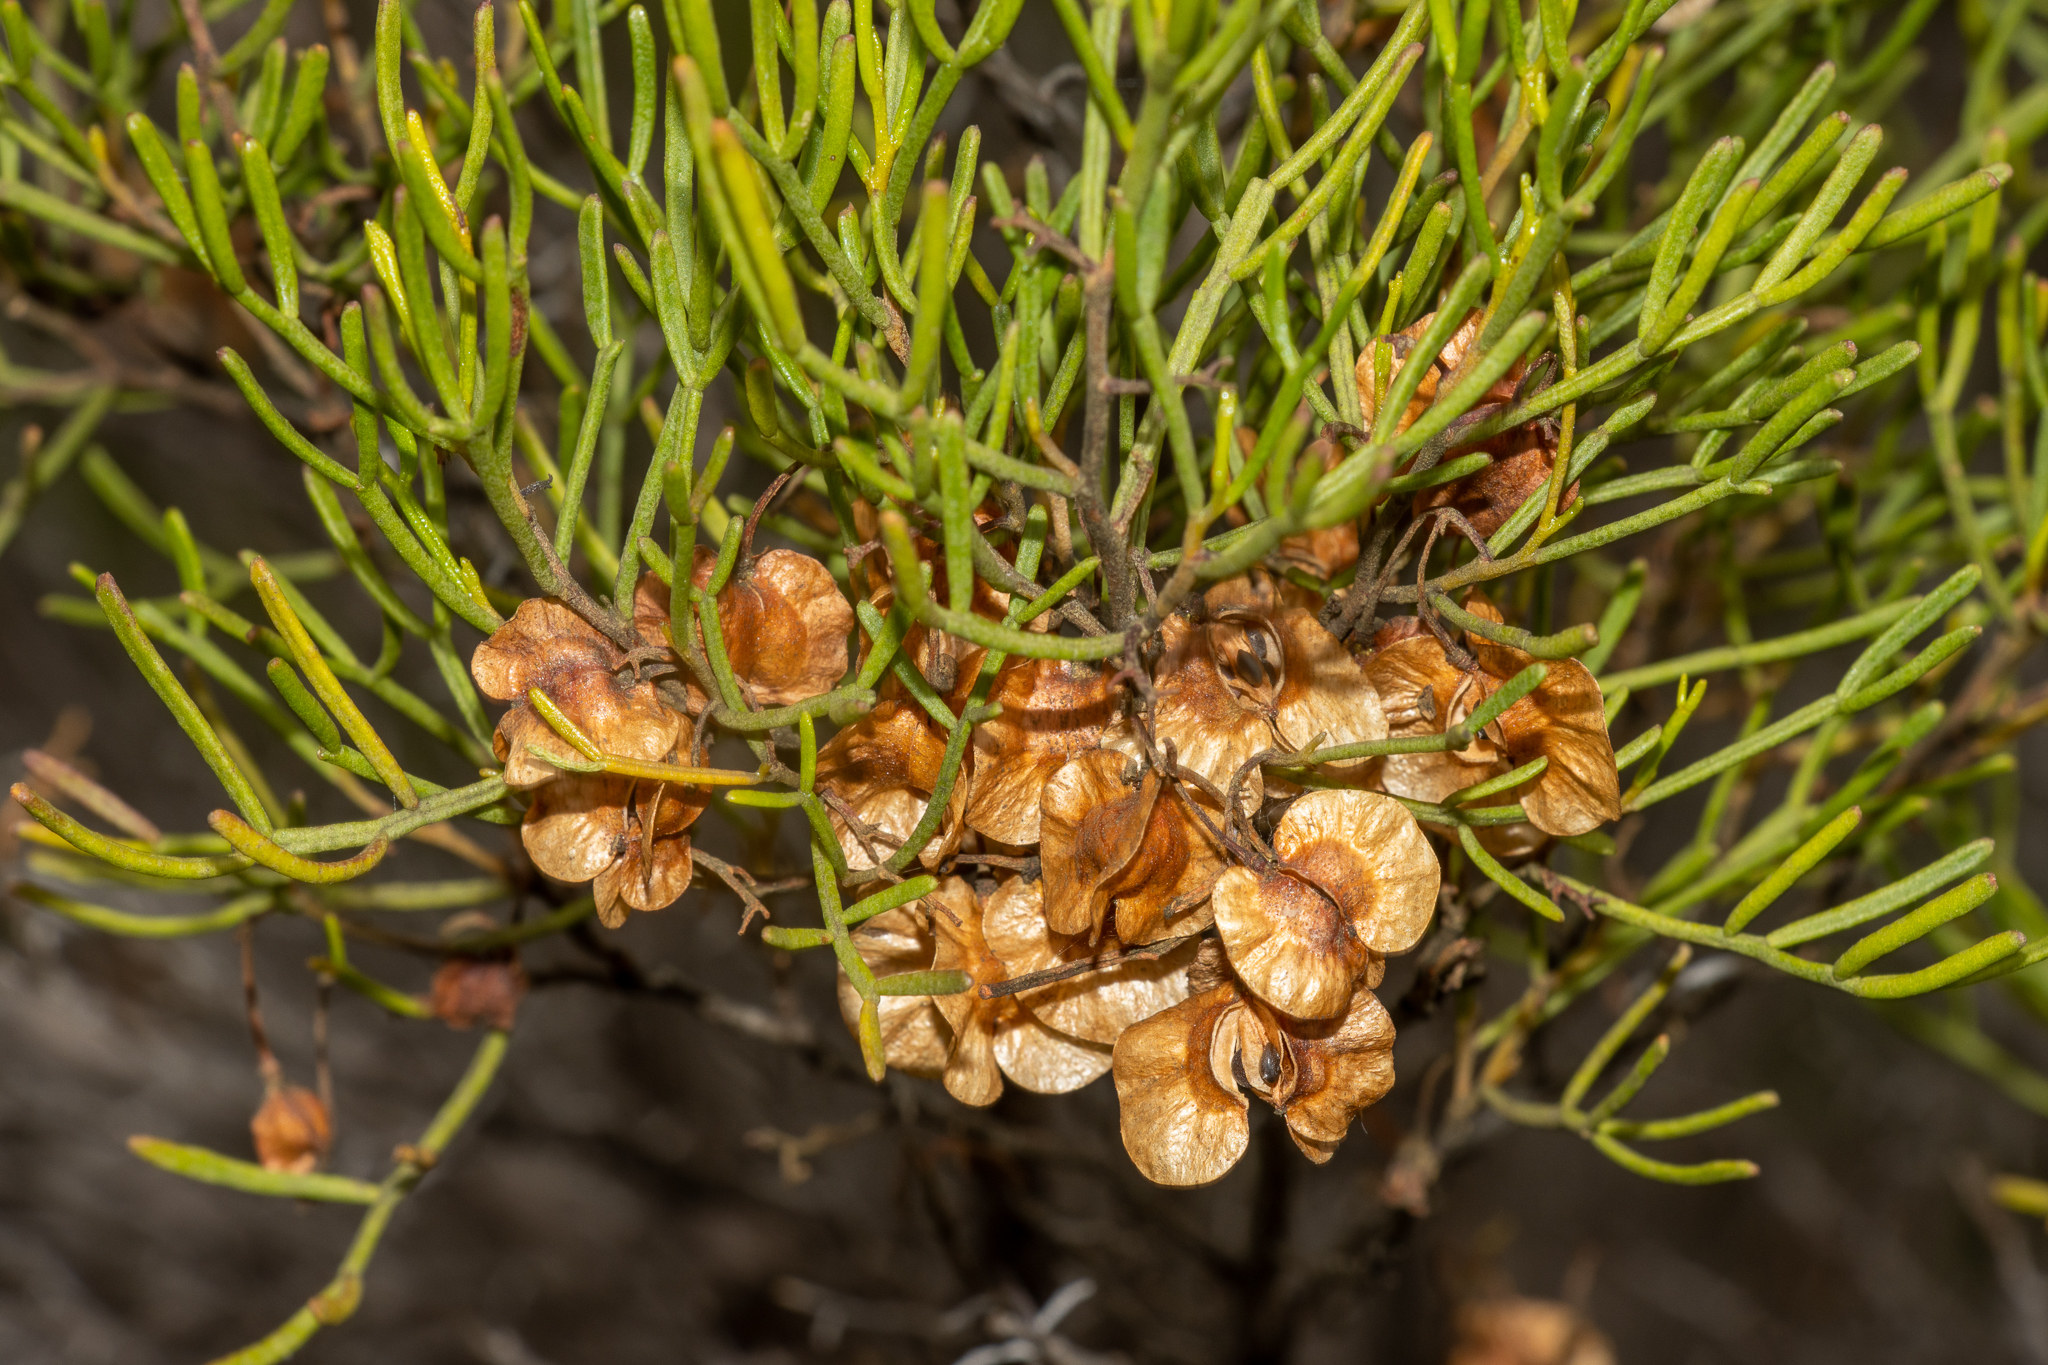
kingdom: Plantae
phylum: Tracheophyta
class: Magnoliopsida
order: Sapindales
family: Sapindaceae
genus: Dodonaea
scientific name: Dodonaea stenozyga
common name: Desert hopbush
